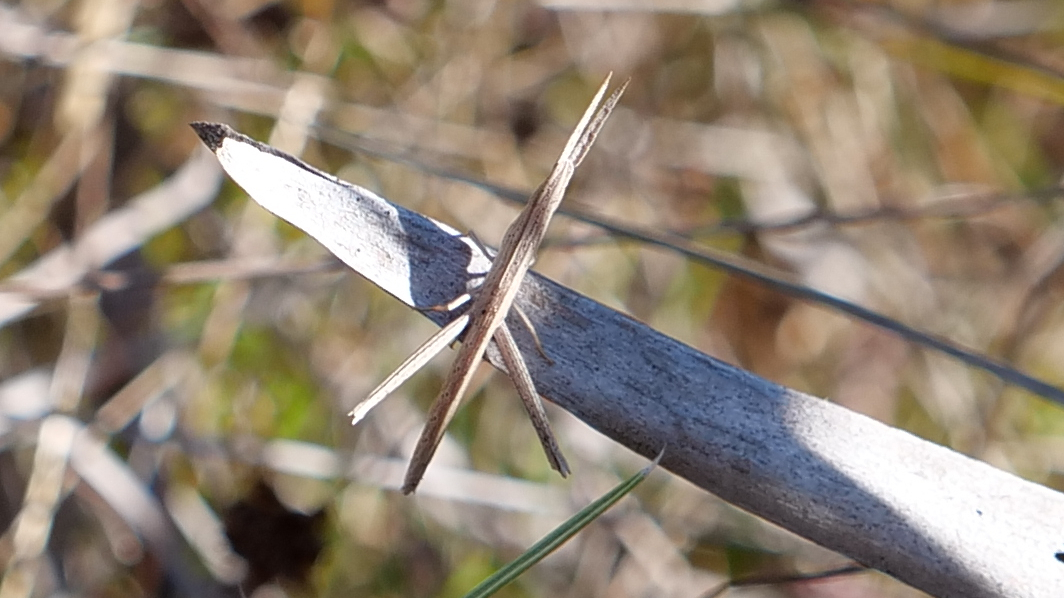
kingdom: Animalia
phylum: Arthropoda
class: Insecta
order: Orthoptera
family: Acrididae
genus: Achurum
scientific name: Achurum carinatum
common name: Long-headed toothpick grasshopper
